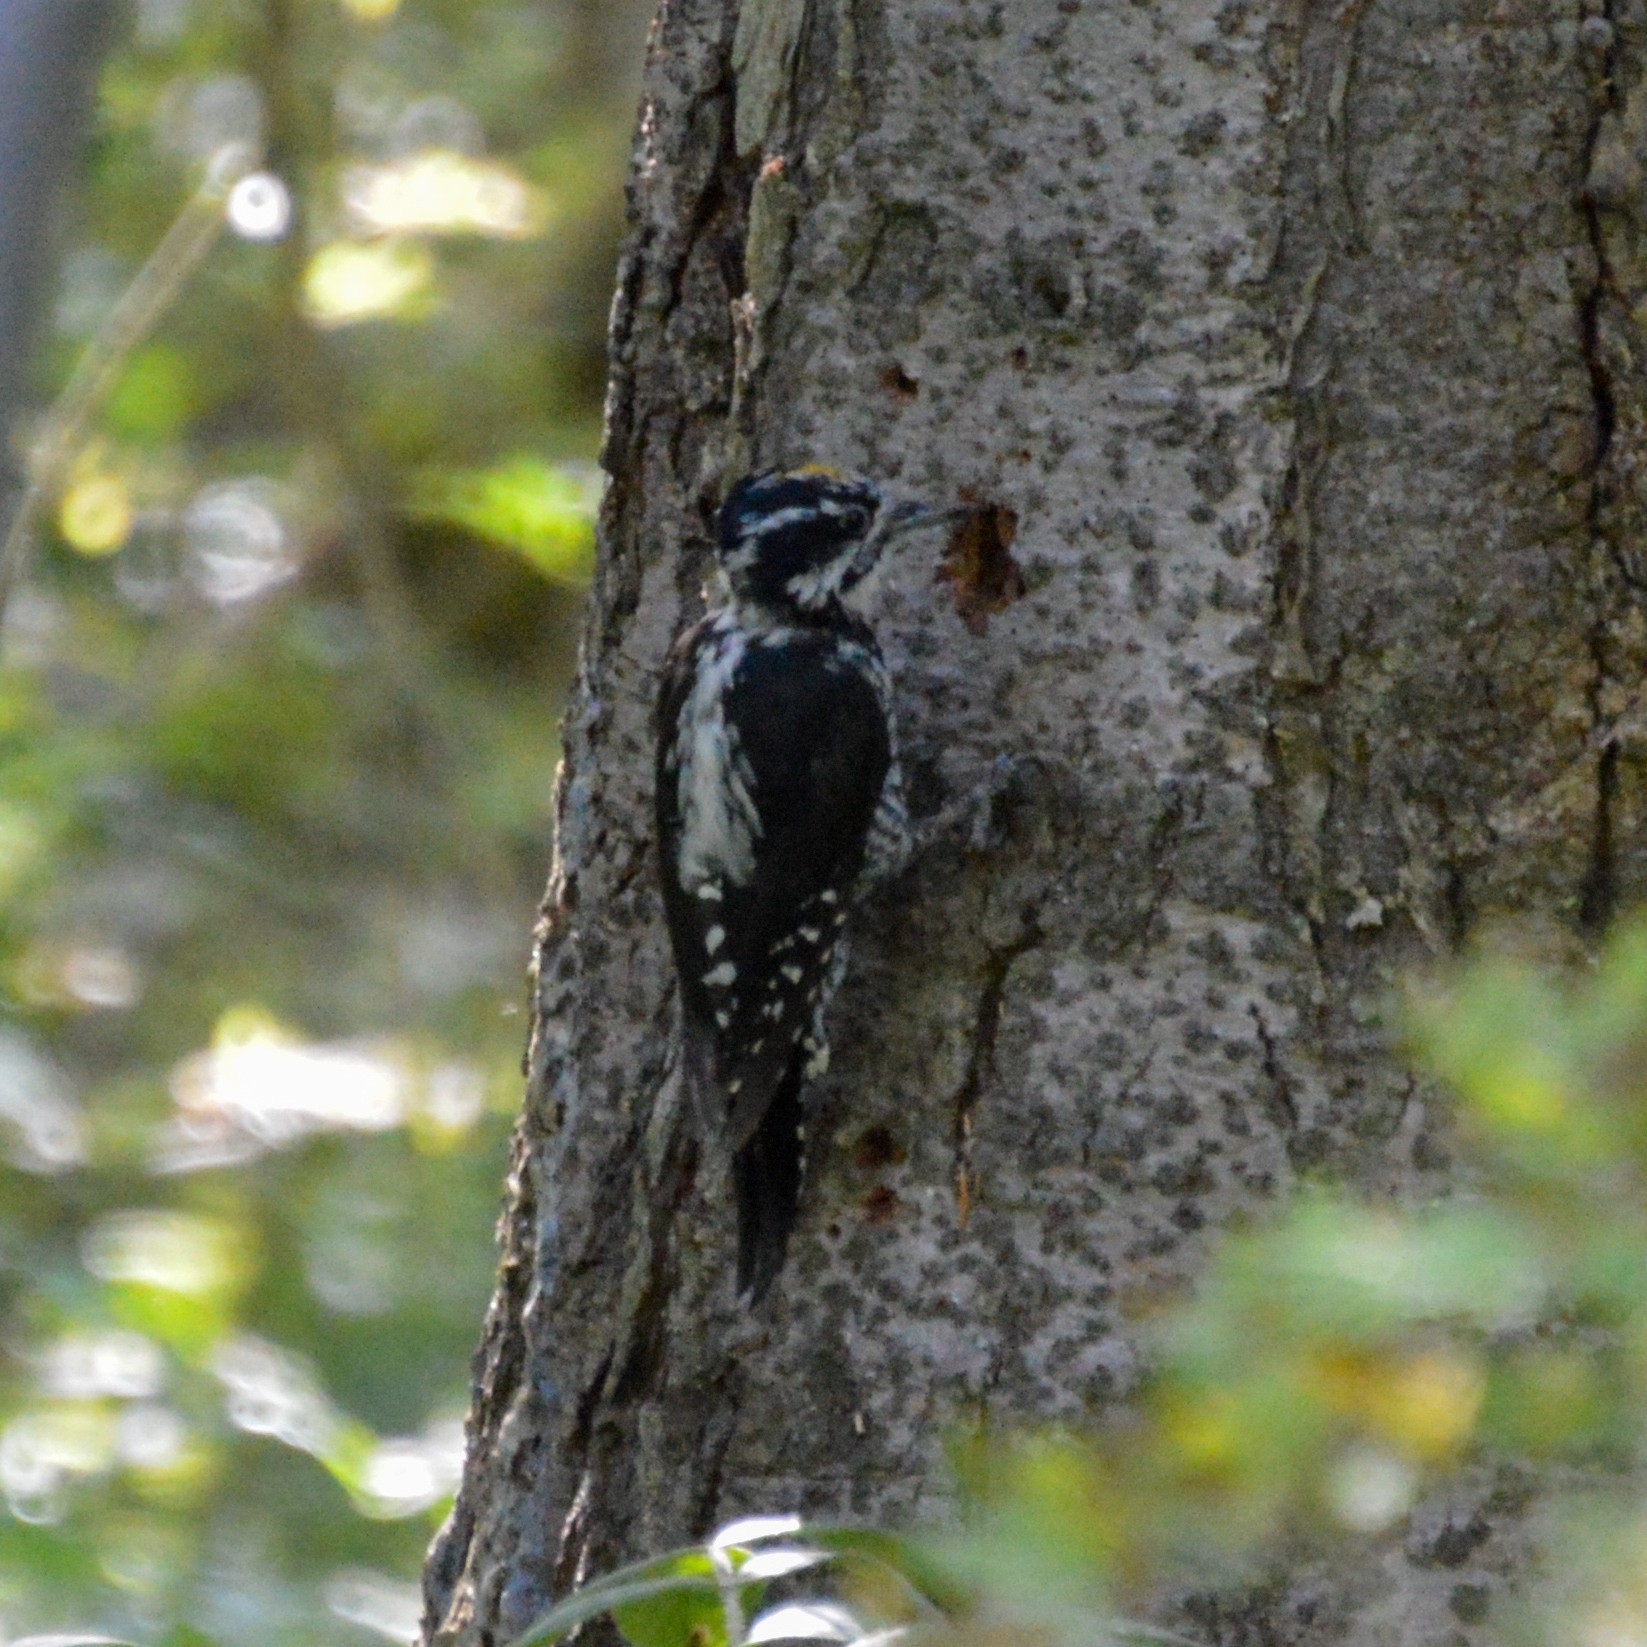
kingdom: Animalia
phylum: Chordata
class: Aves
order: Piciformes
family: Picidae
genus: Picoides
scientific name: Picoides tridactylus
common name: Eurasian three-toed woodpecker
